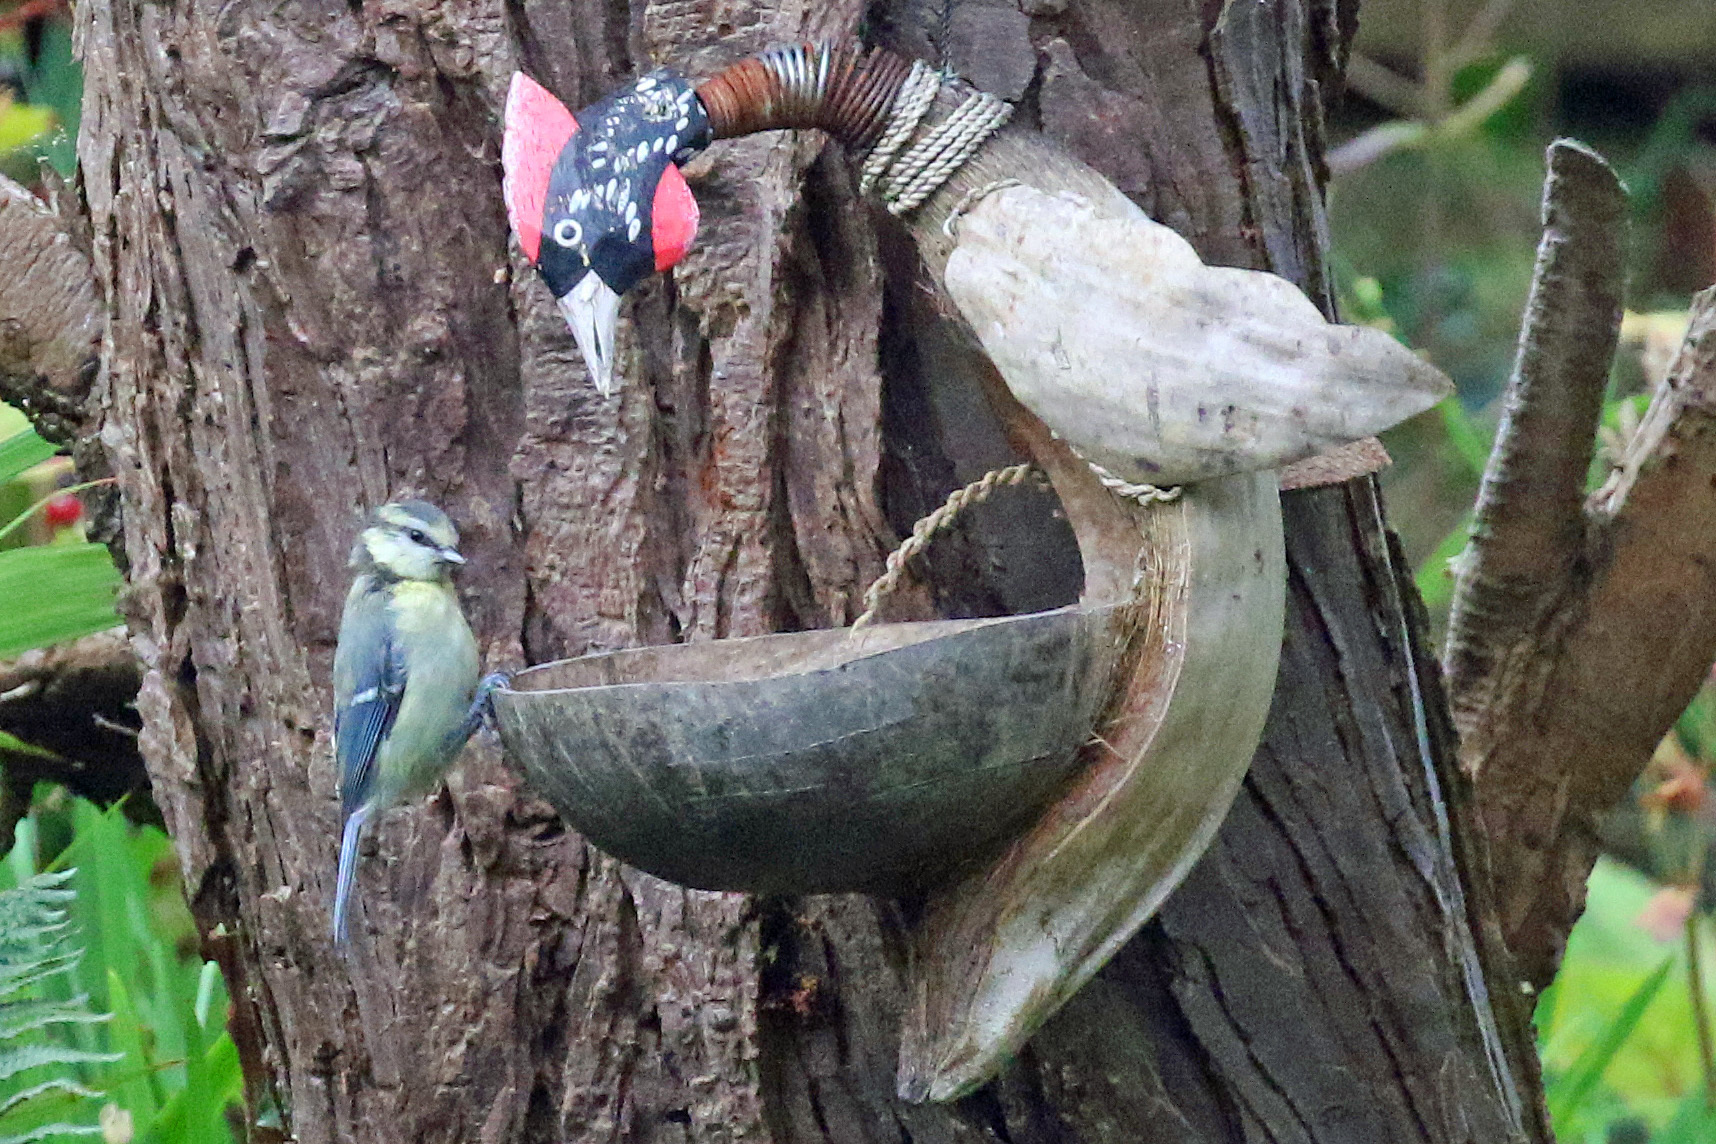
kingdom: Animalia
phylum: Chordata
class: Aves
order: Passeriformes
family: Paridae
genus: Cyanistes
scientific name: Cyanistes caeruleus
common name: Eurasian blue tit
